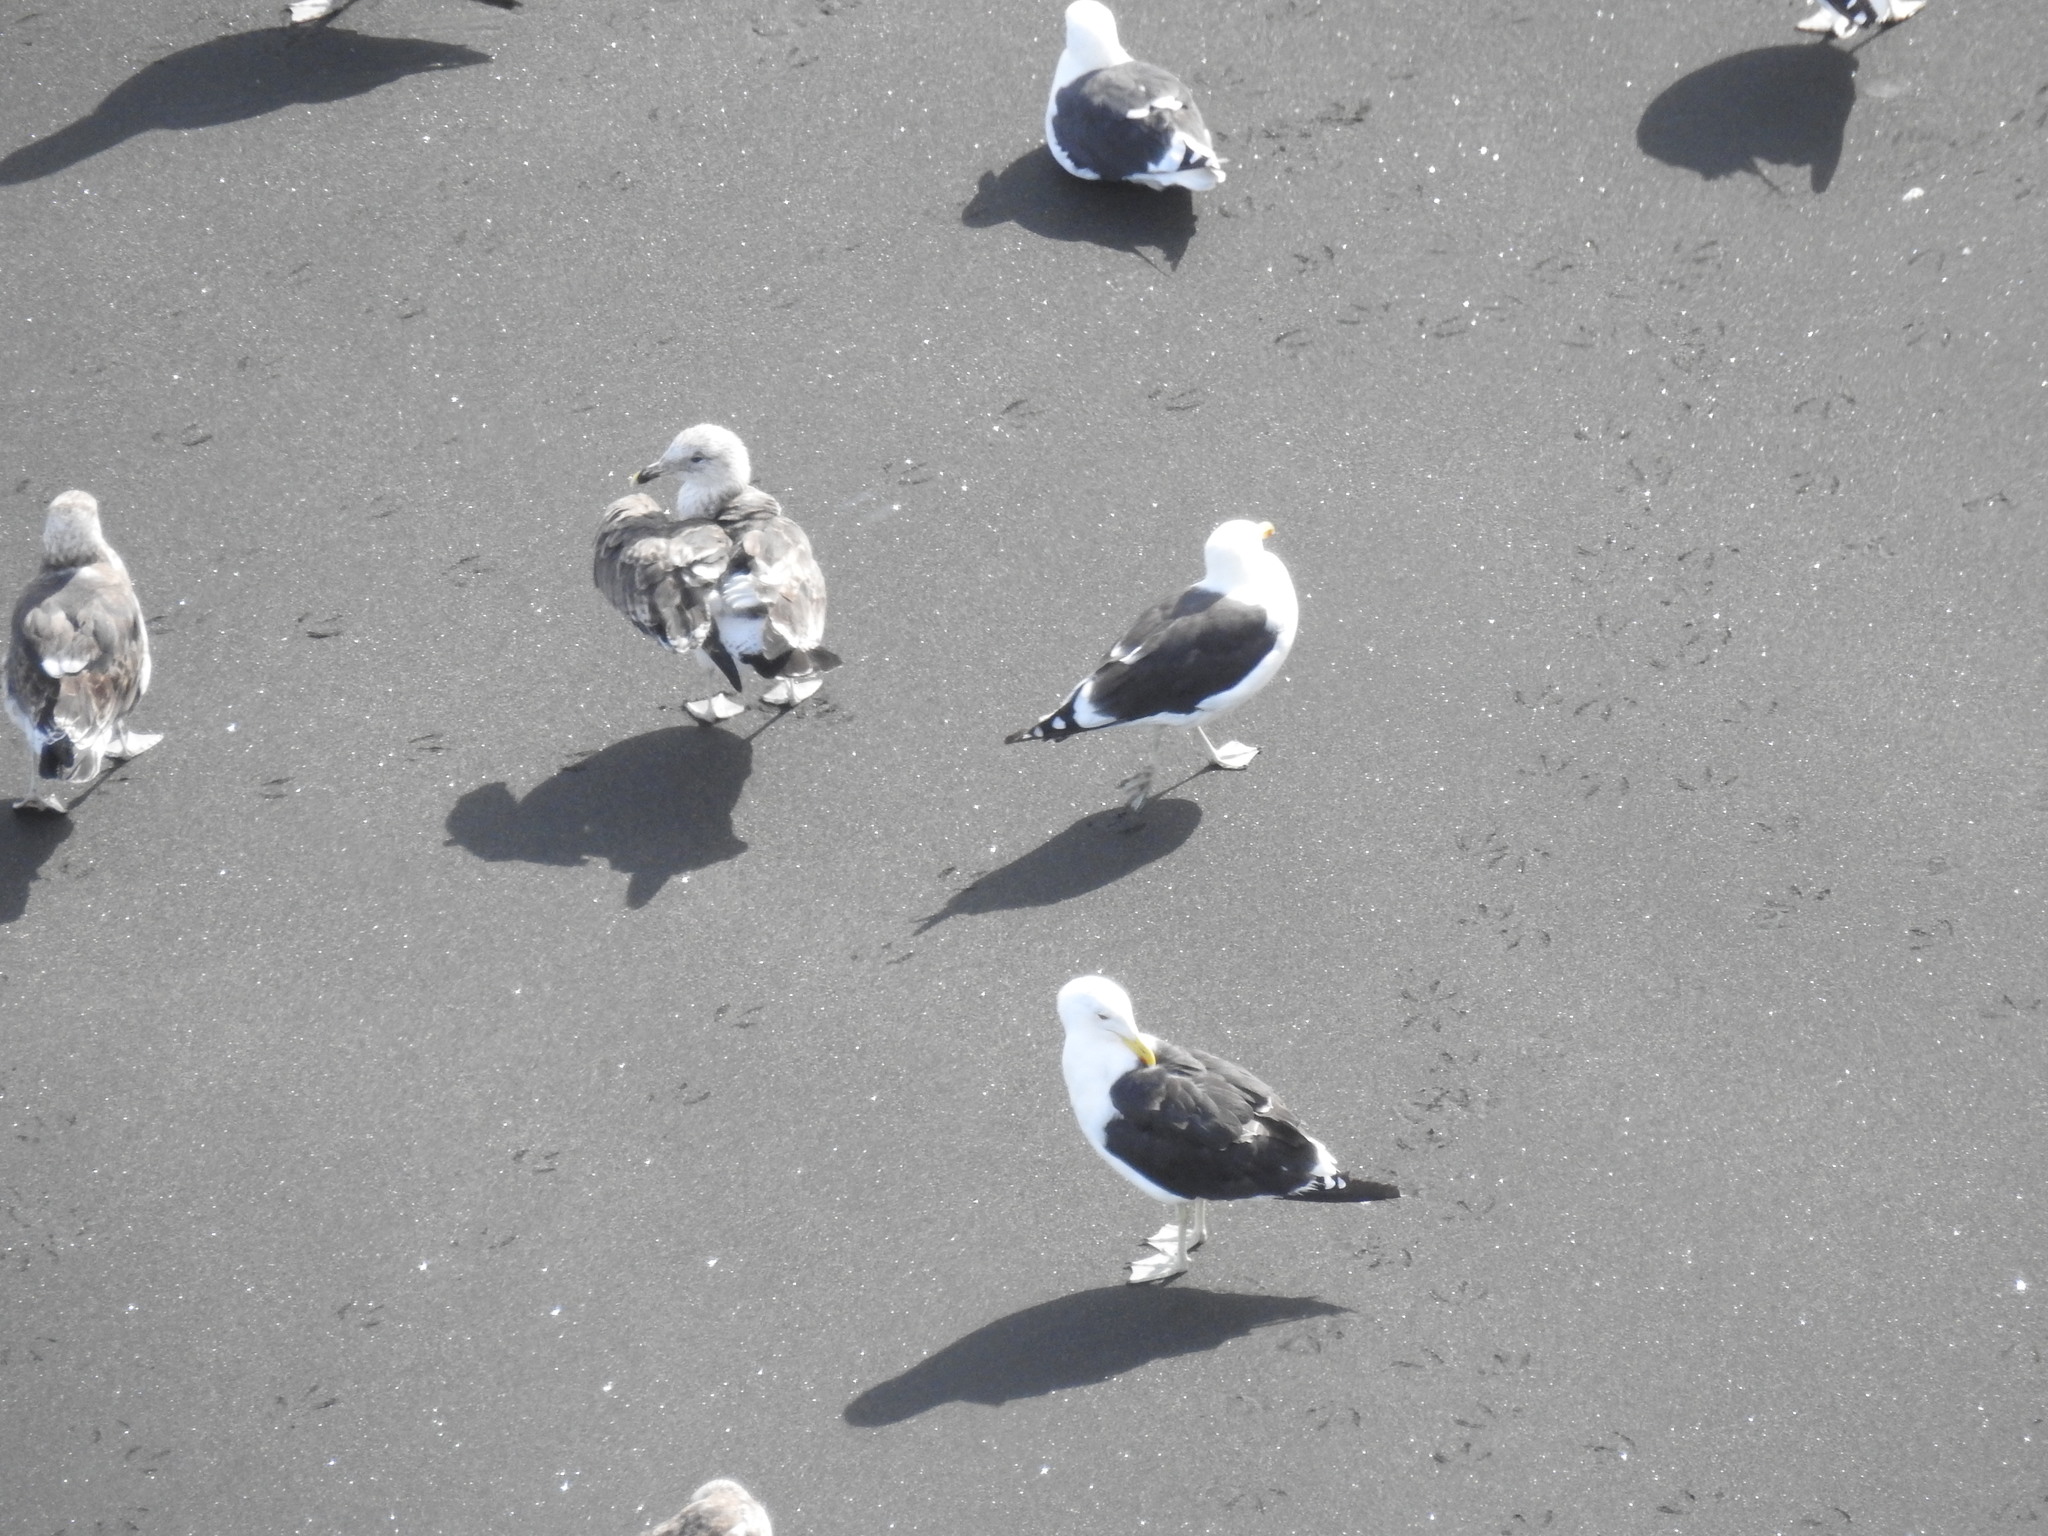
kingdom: Animalia
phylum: Chordata
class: Aves
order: Charadriiformes
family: Laridae
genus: Larus
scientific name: Larus dominicanus
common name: Kelp gull
